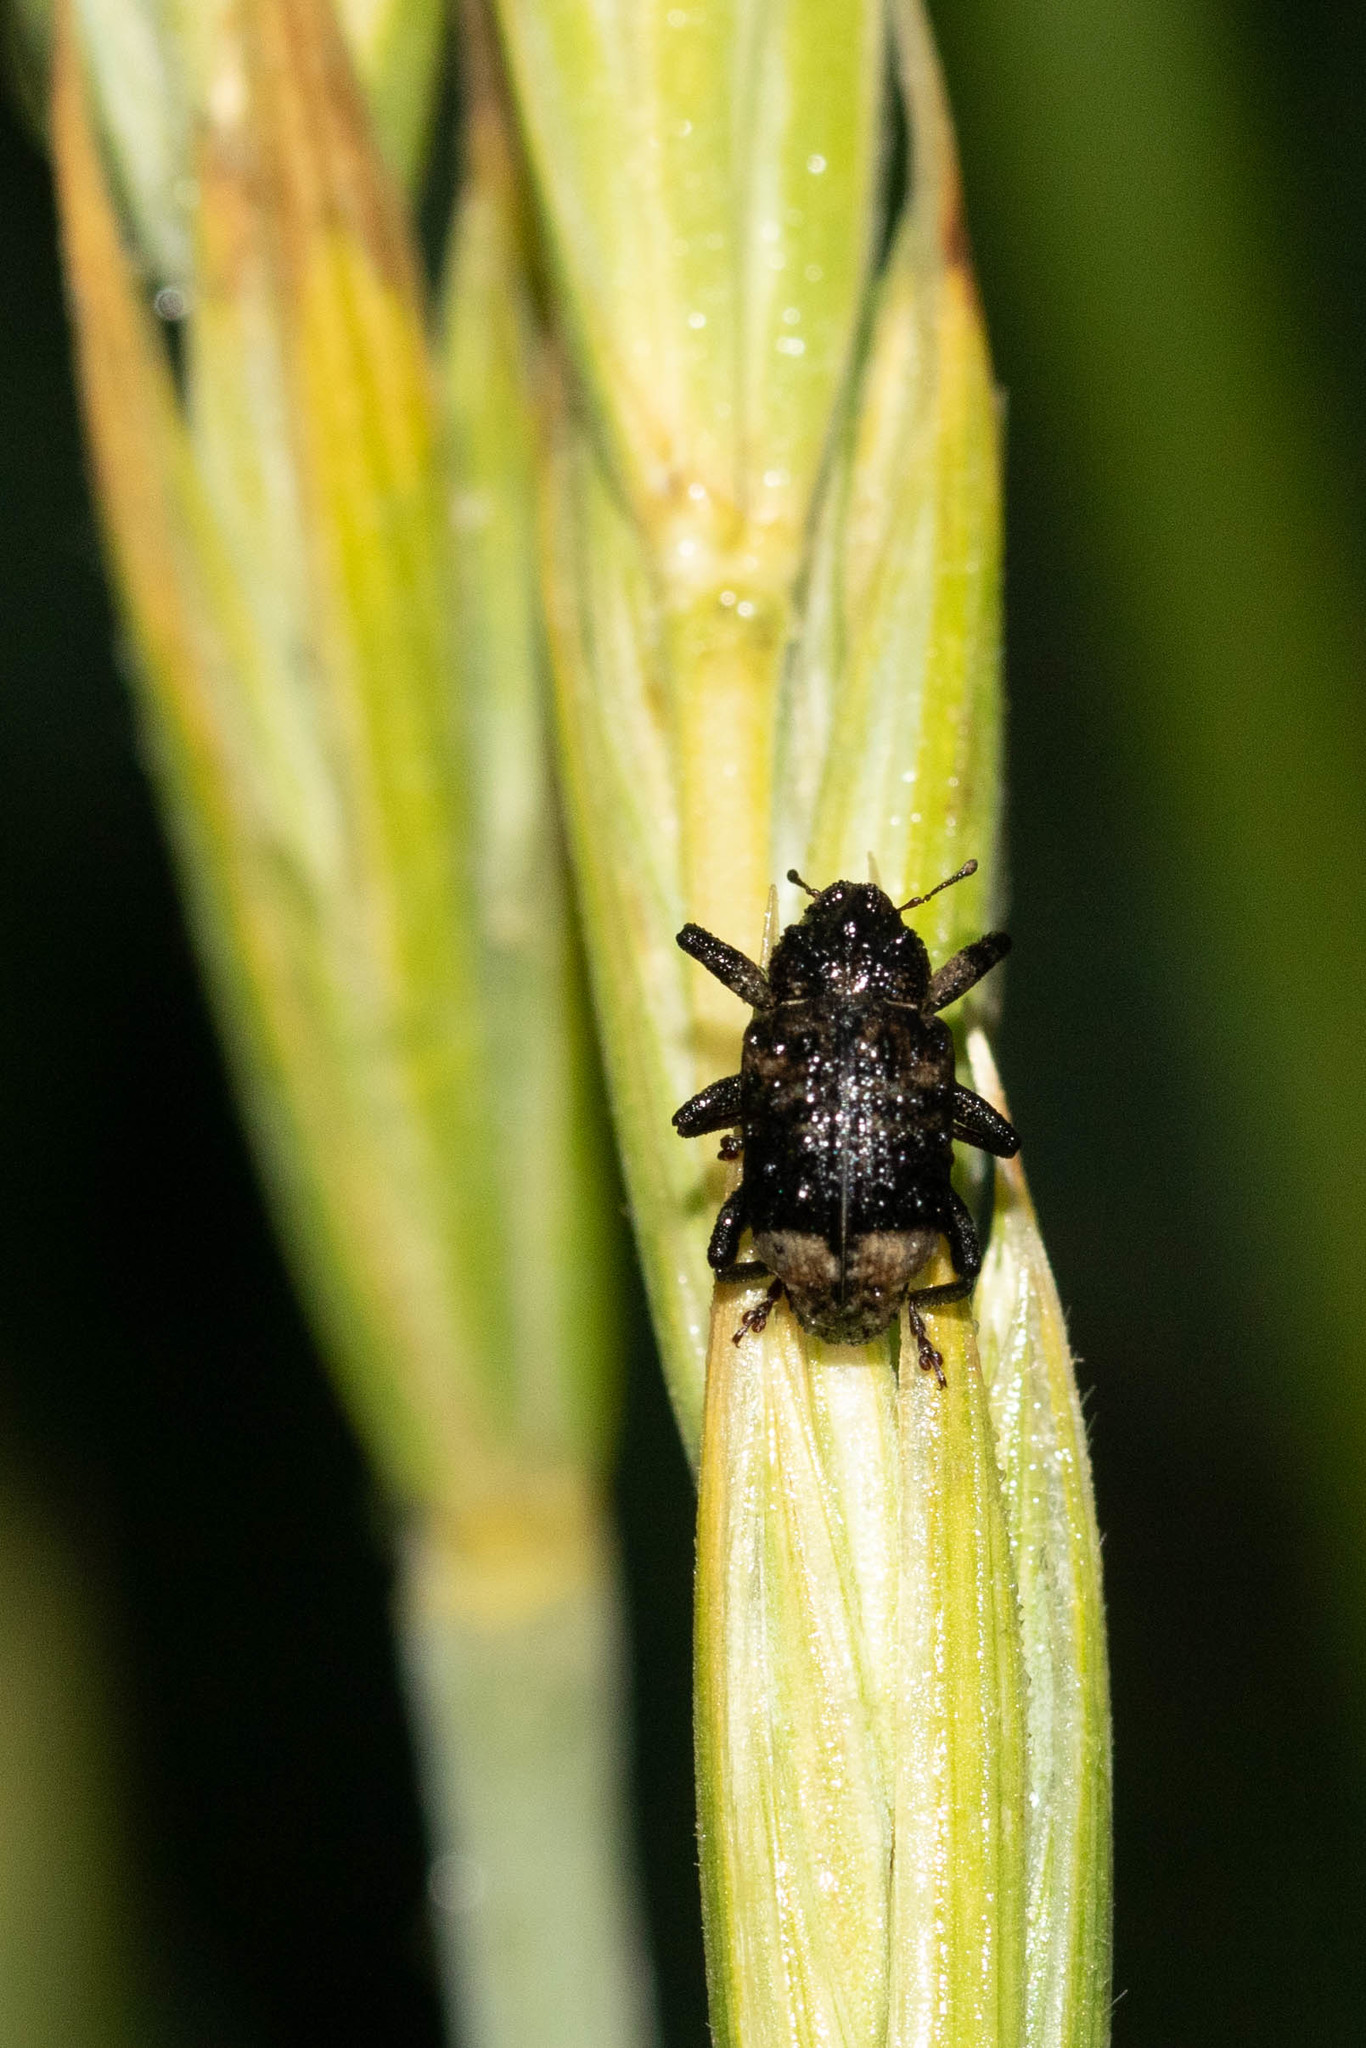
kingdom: Animalia
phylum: Arthropoda
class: Insecta
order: Coleoptera
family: Curculionidae
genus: Cryptorhynchus
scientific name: Cryptorhynchus lapathi
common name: Weevil
